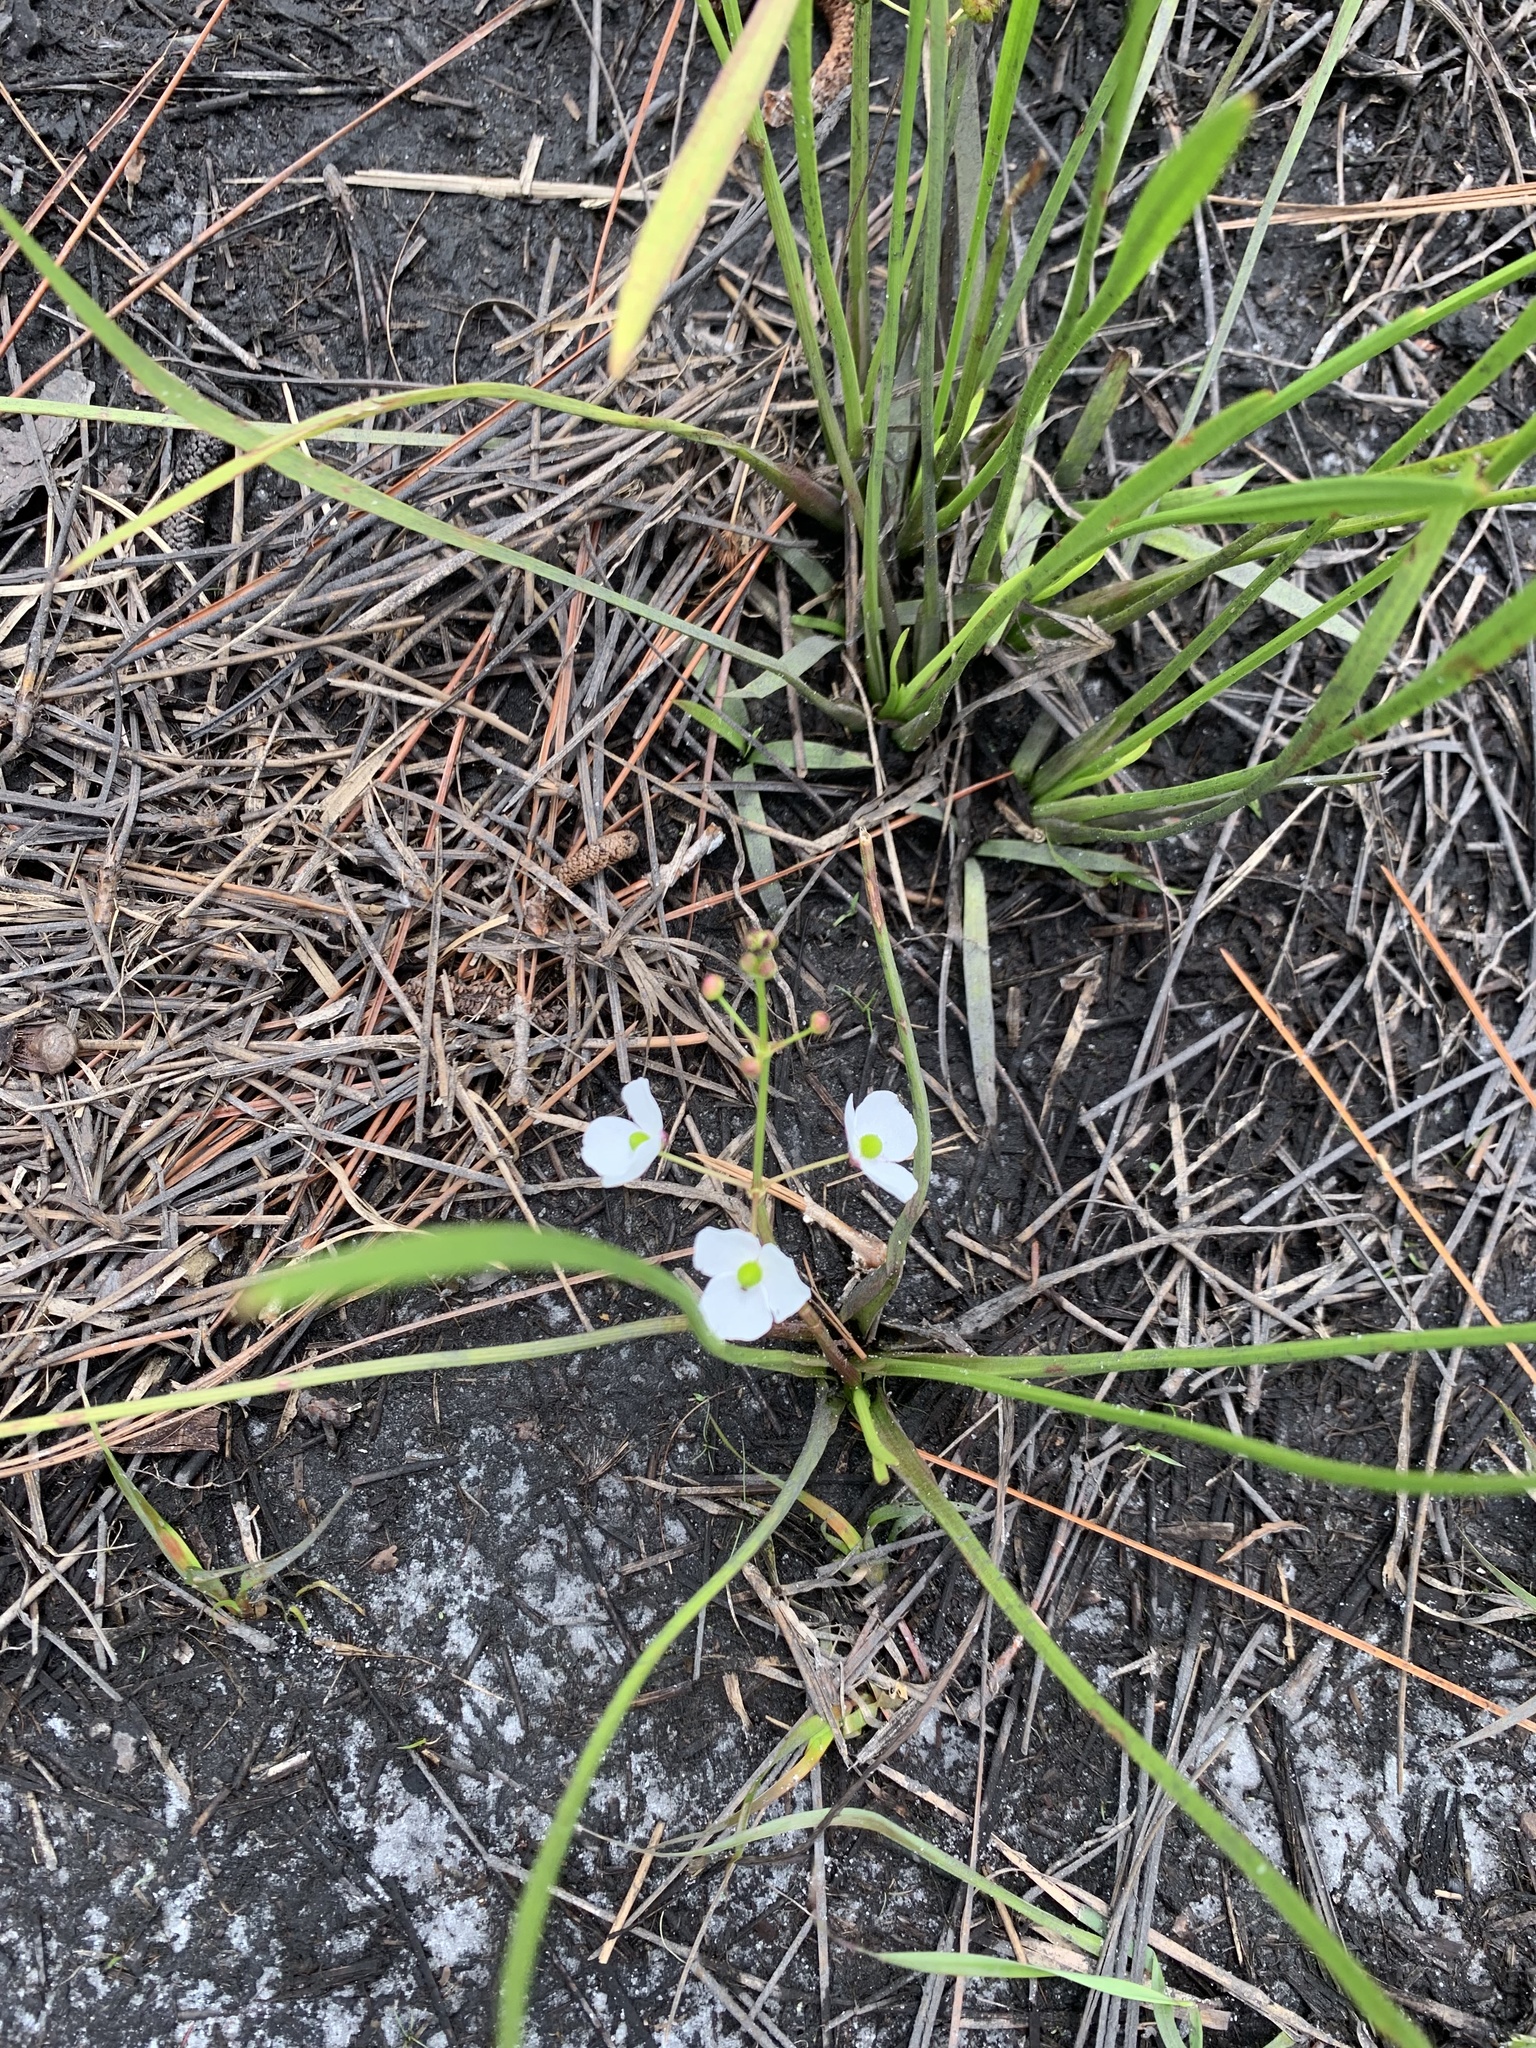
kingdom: Plantae
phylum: Tracheophyta
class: Liliopsida
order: Alismatales
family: Alismataceae
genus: Sagittaria
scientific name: Sagittaria graminea
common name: Grass-leaved arrowhead
